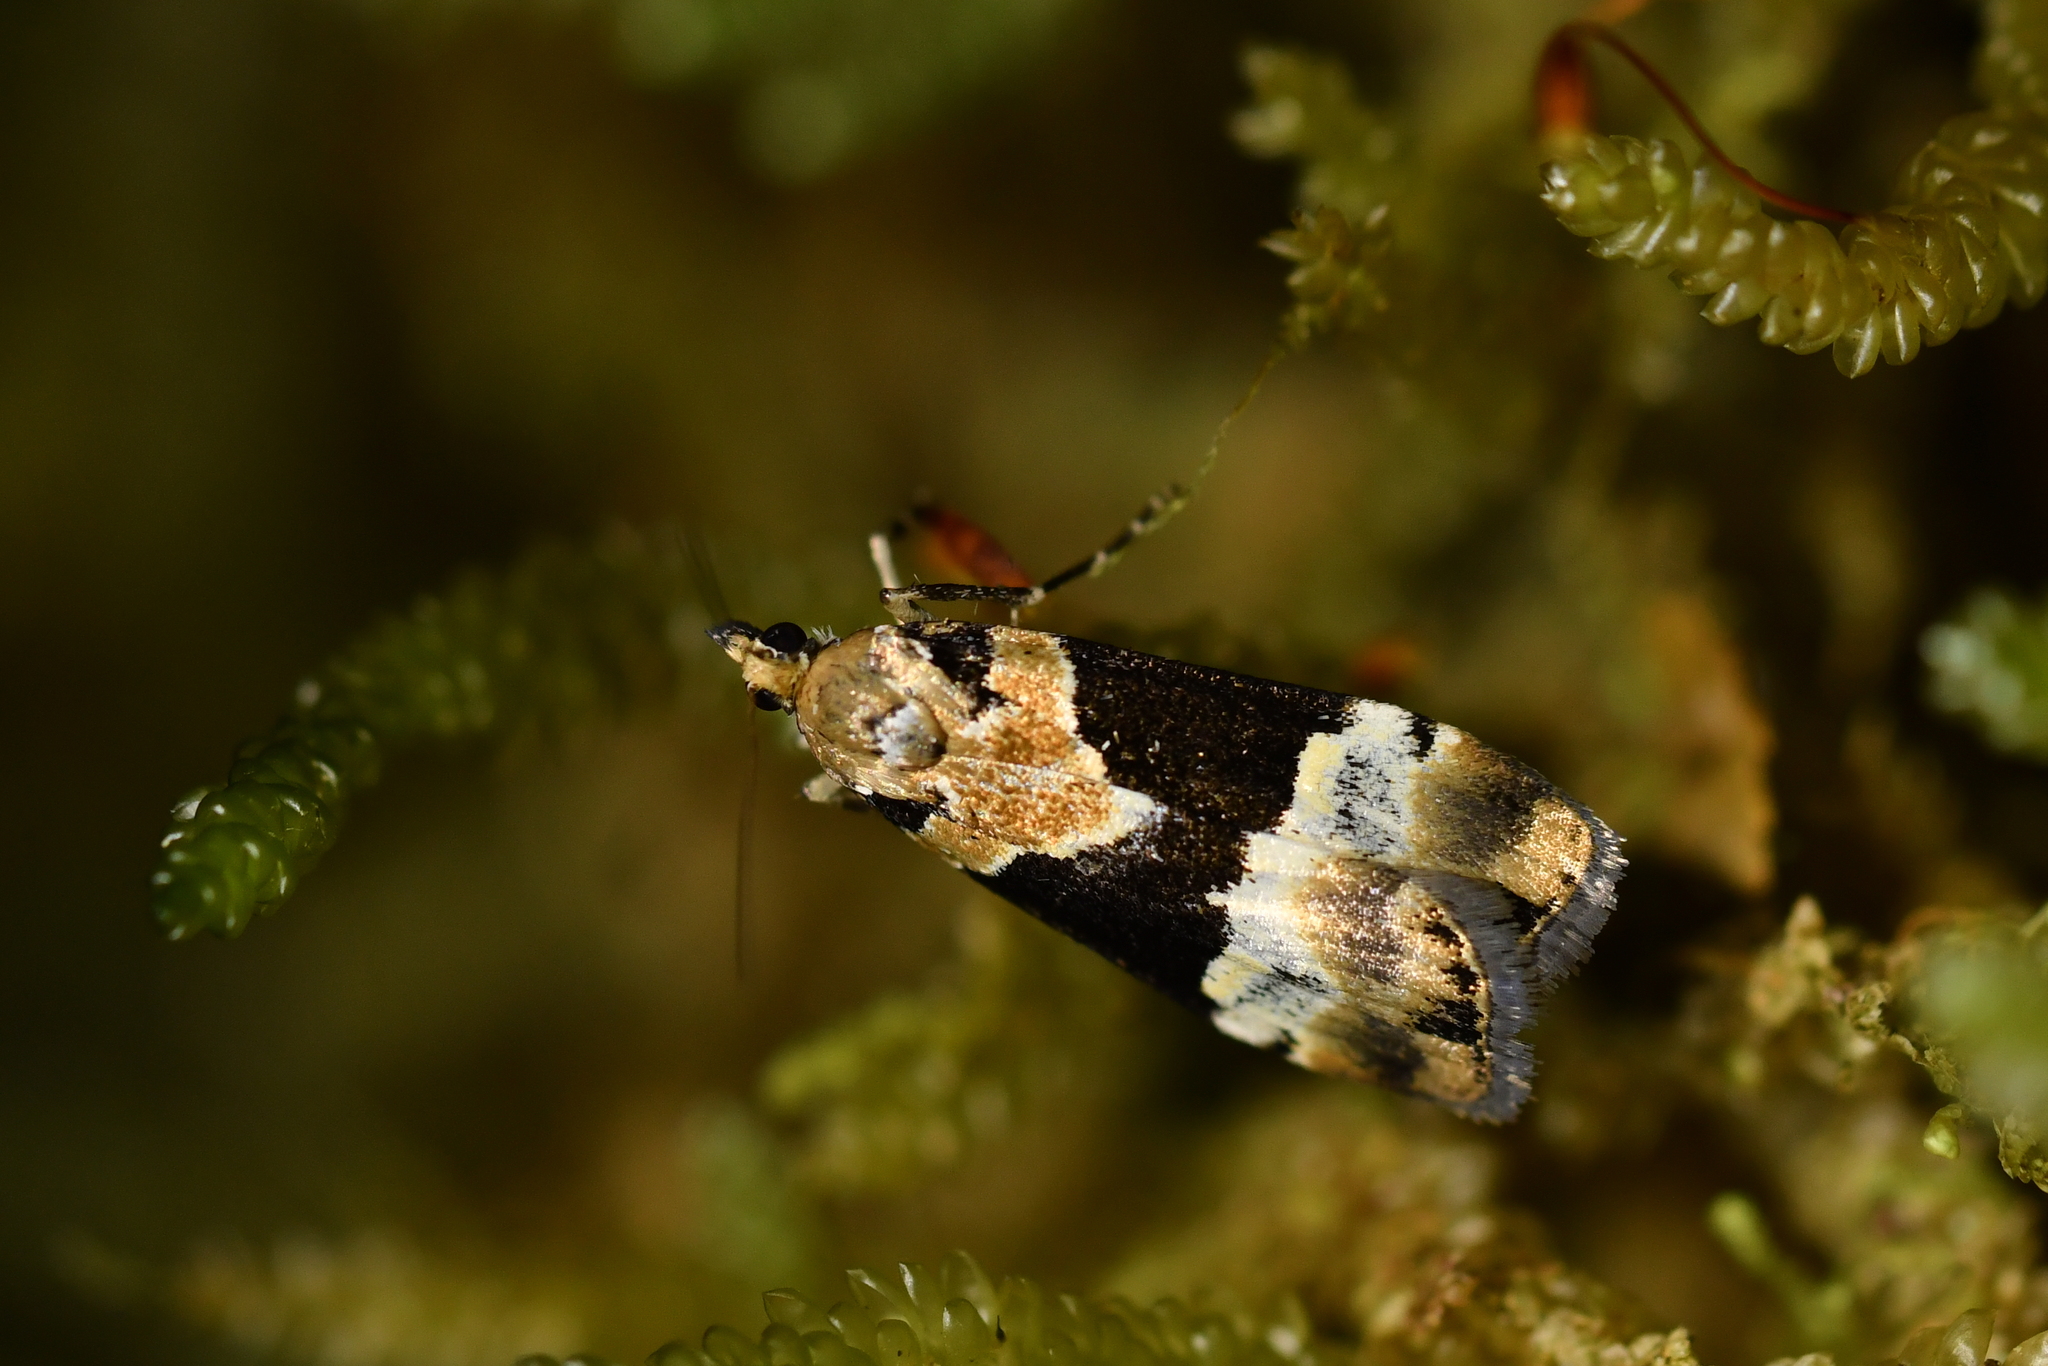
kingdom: Animalia
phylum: Arthropoda
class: Insecta
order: Lepidoptera
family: Crambidae
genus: Eudonia
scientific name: Eudonia aspidota
